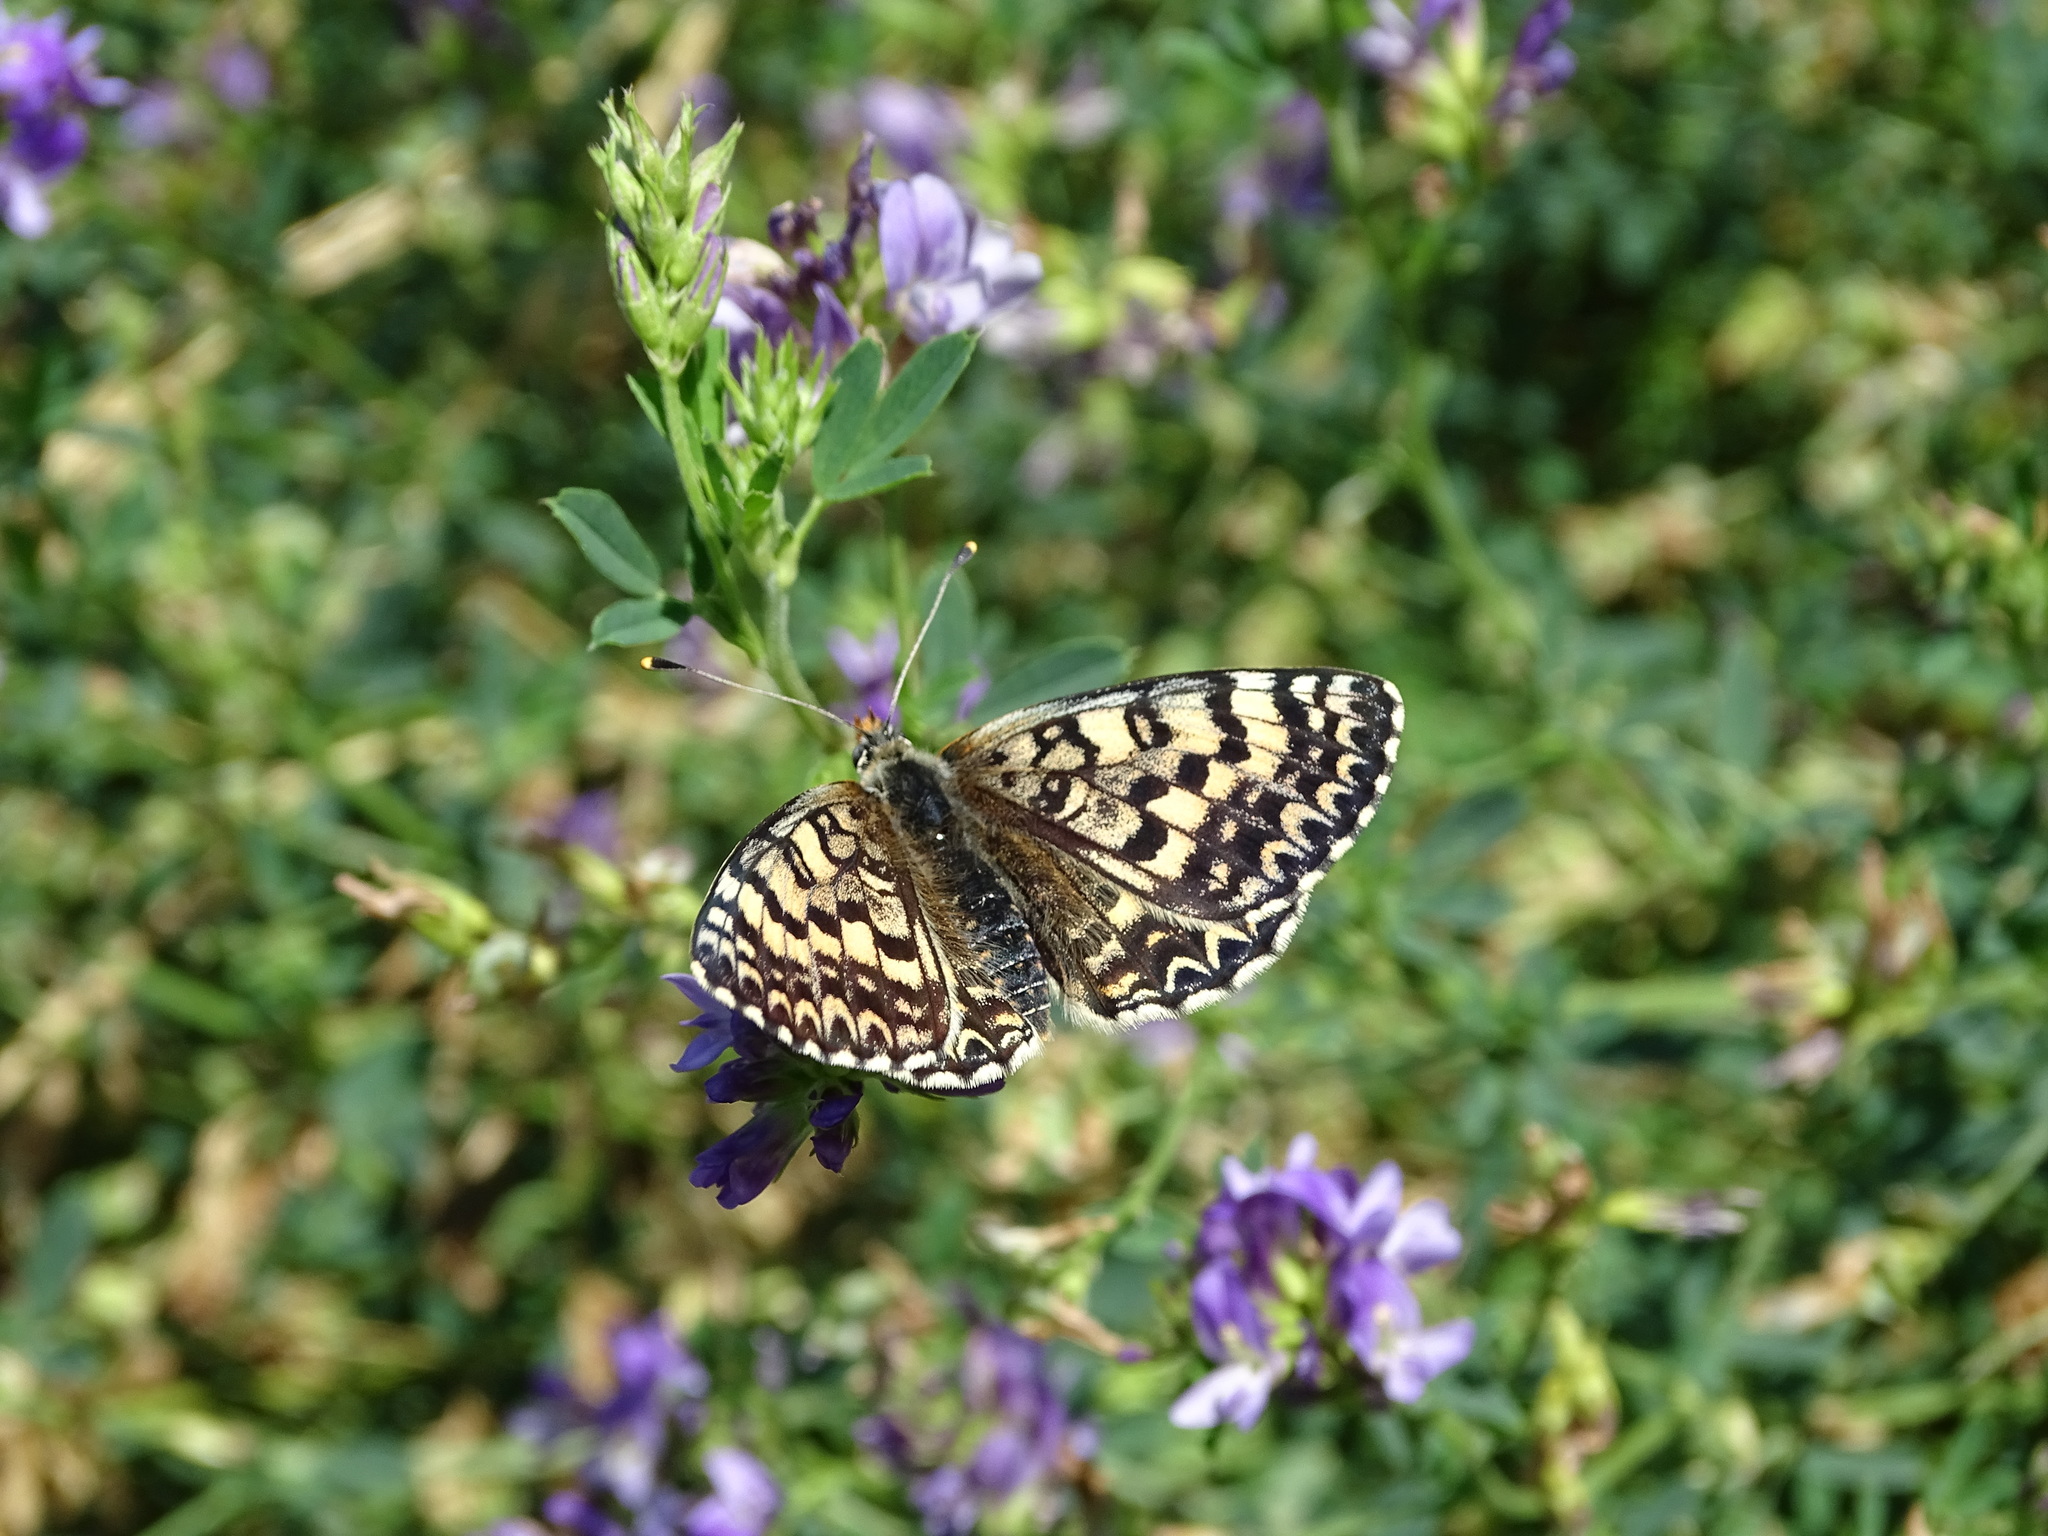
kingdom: Animalia
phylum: Arthropoda
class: Insecta
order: Lepidoptera
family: Nymphalidae
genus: Melitaea
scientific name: Melitaea didyma
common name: Spotted fritillary
